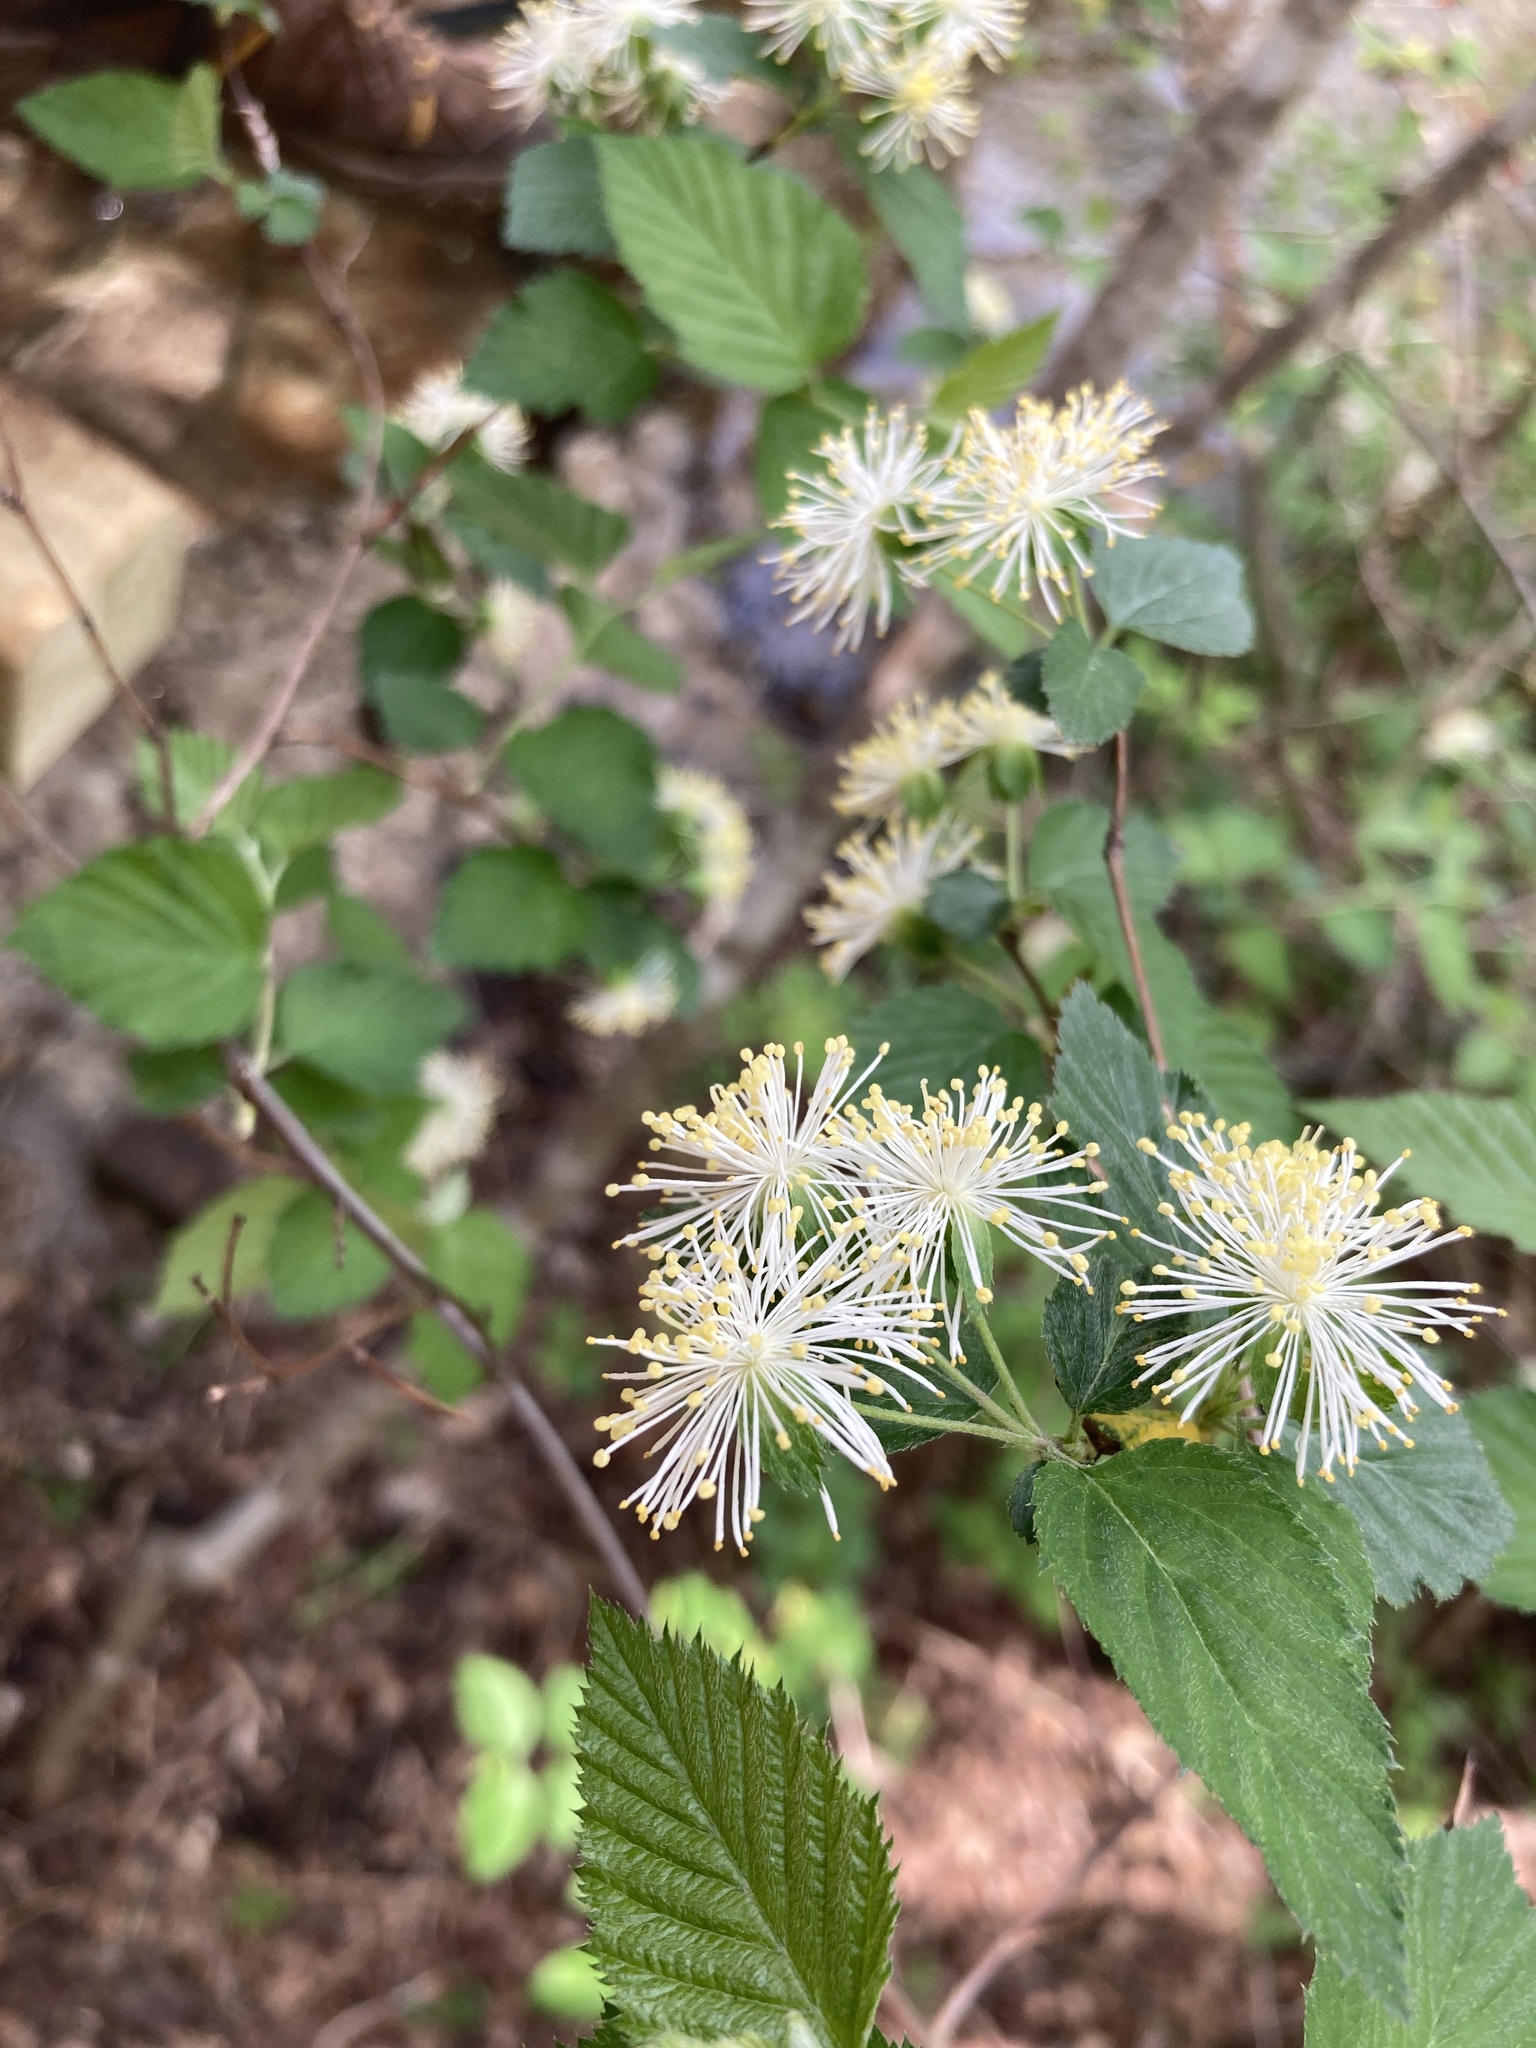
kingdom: Plantae
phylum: Tracheophyta
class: Magnoliopsida
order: Rosales
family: Rosaceae
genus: Neviusia
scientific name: Neviusia alabamensis
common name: Snow-wreath
